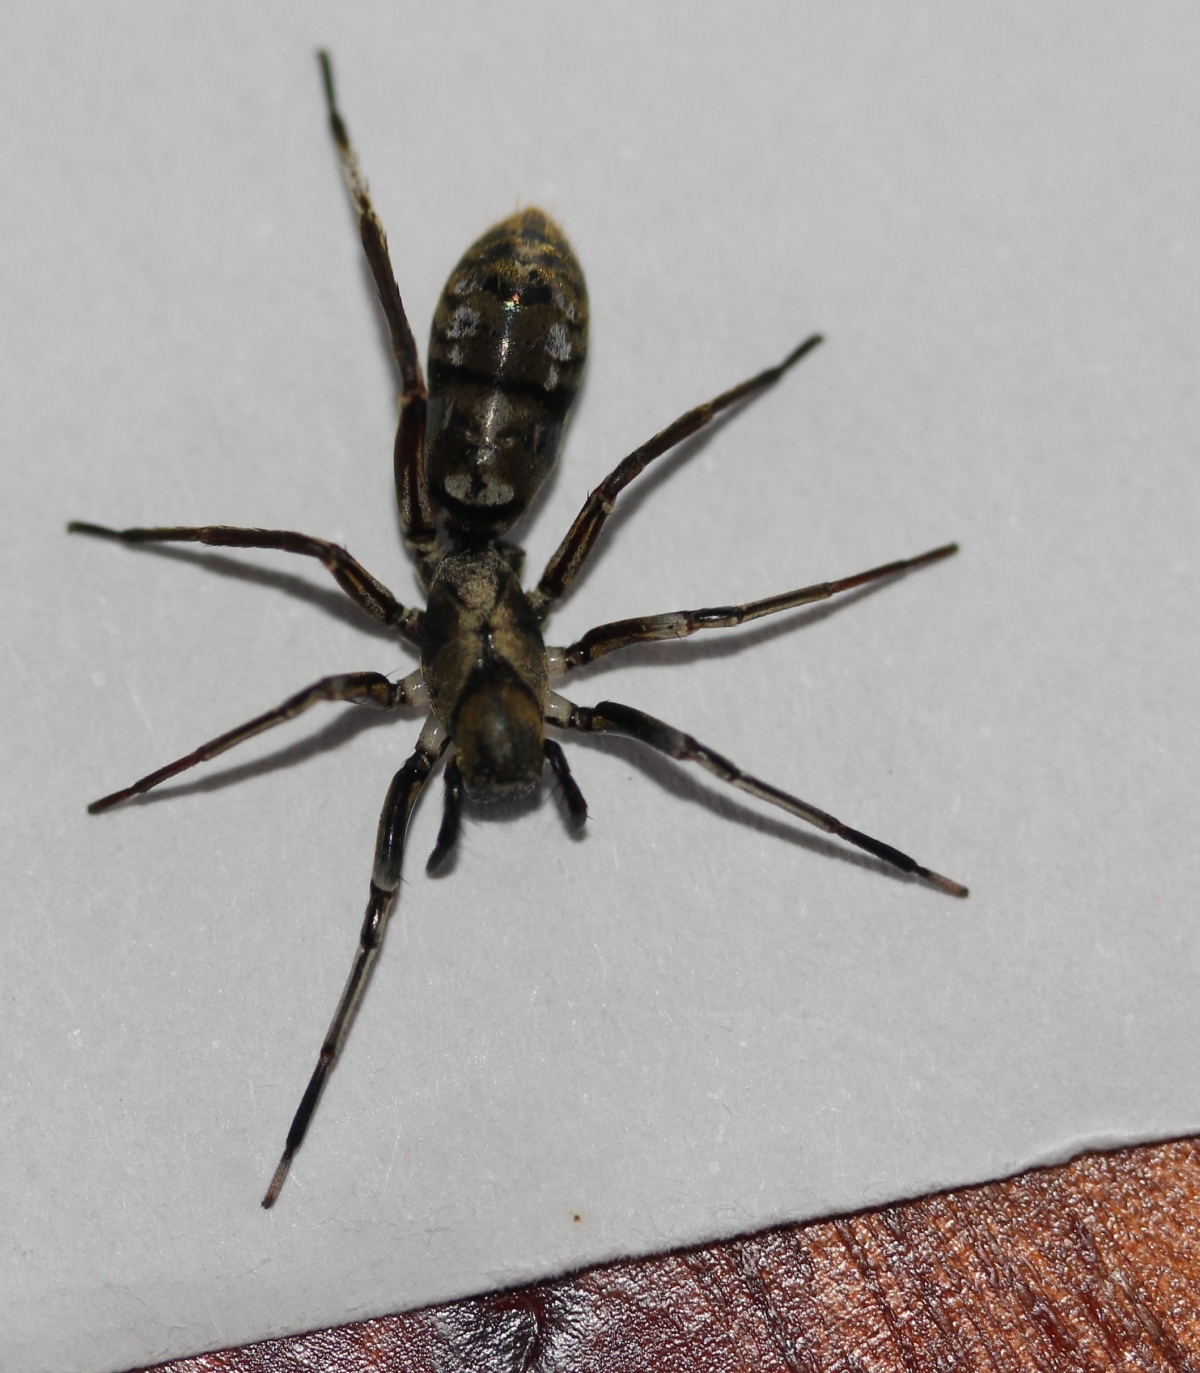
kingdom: Animalia
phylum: Arthropoda
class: Arachnida
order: Araneae
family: Corinnidae
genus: Castianeira
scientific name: Castianeira
